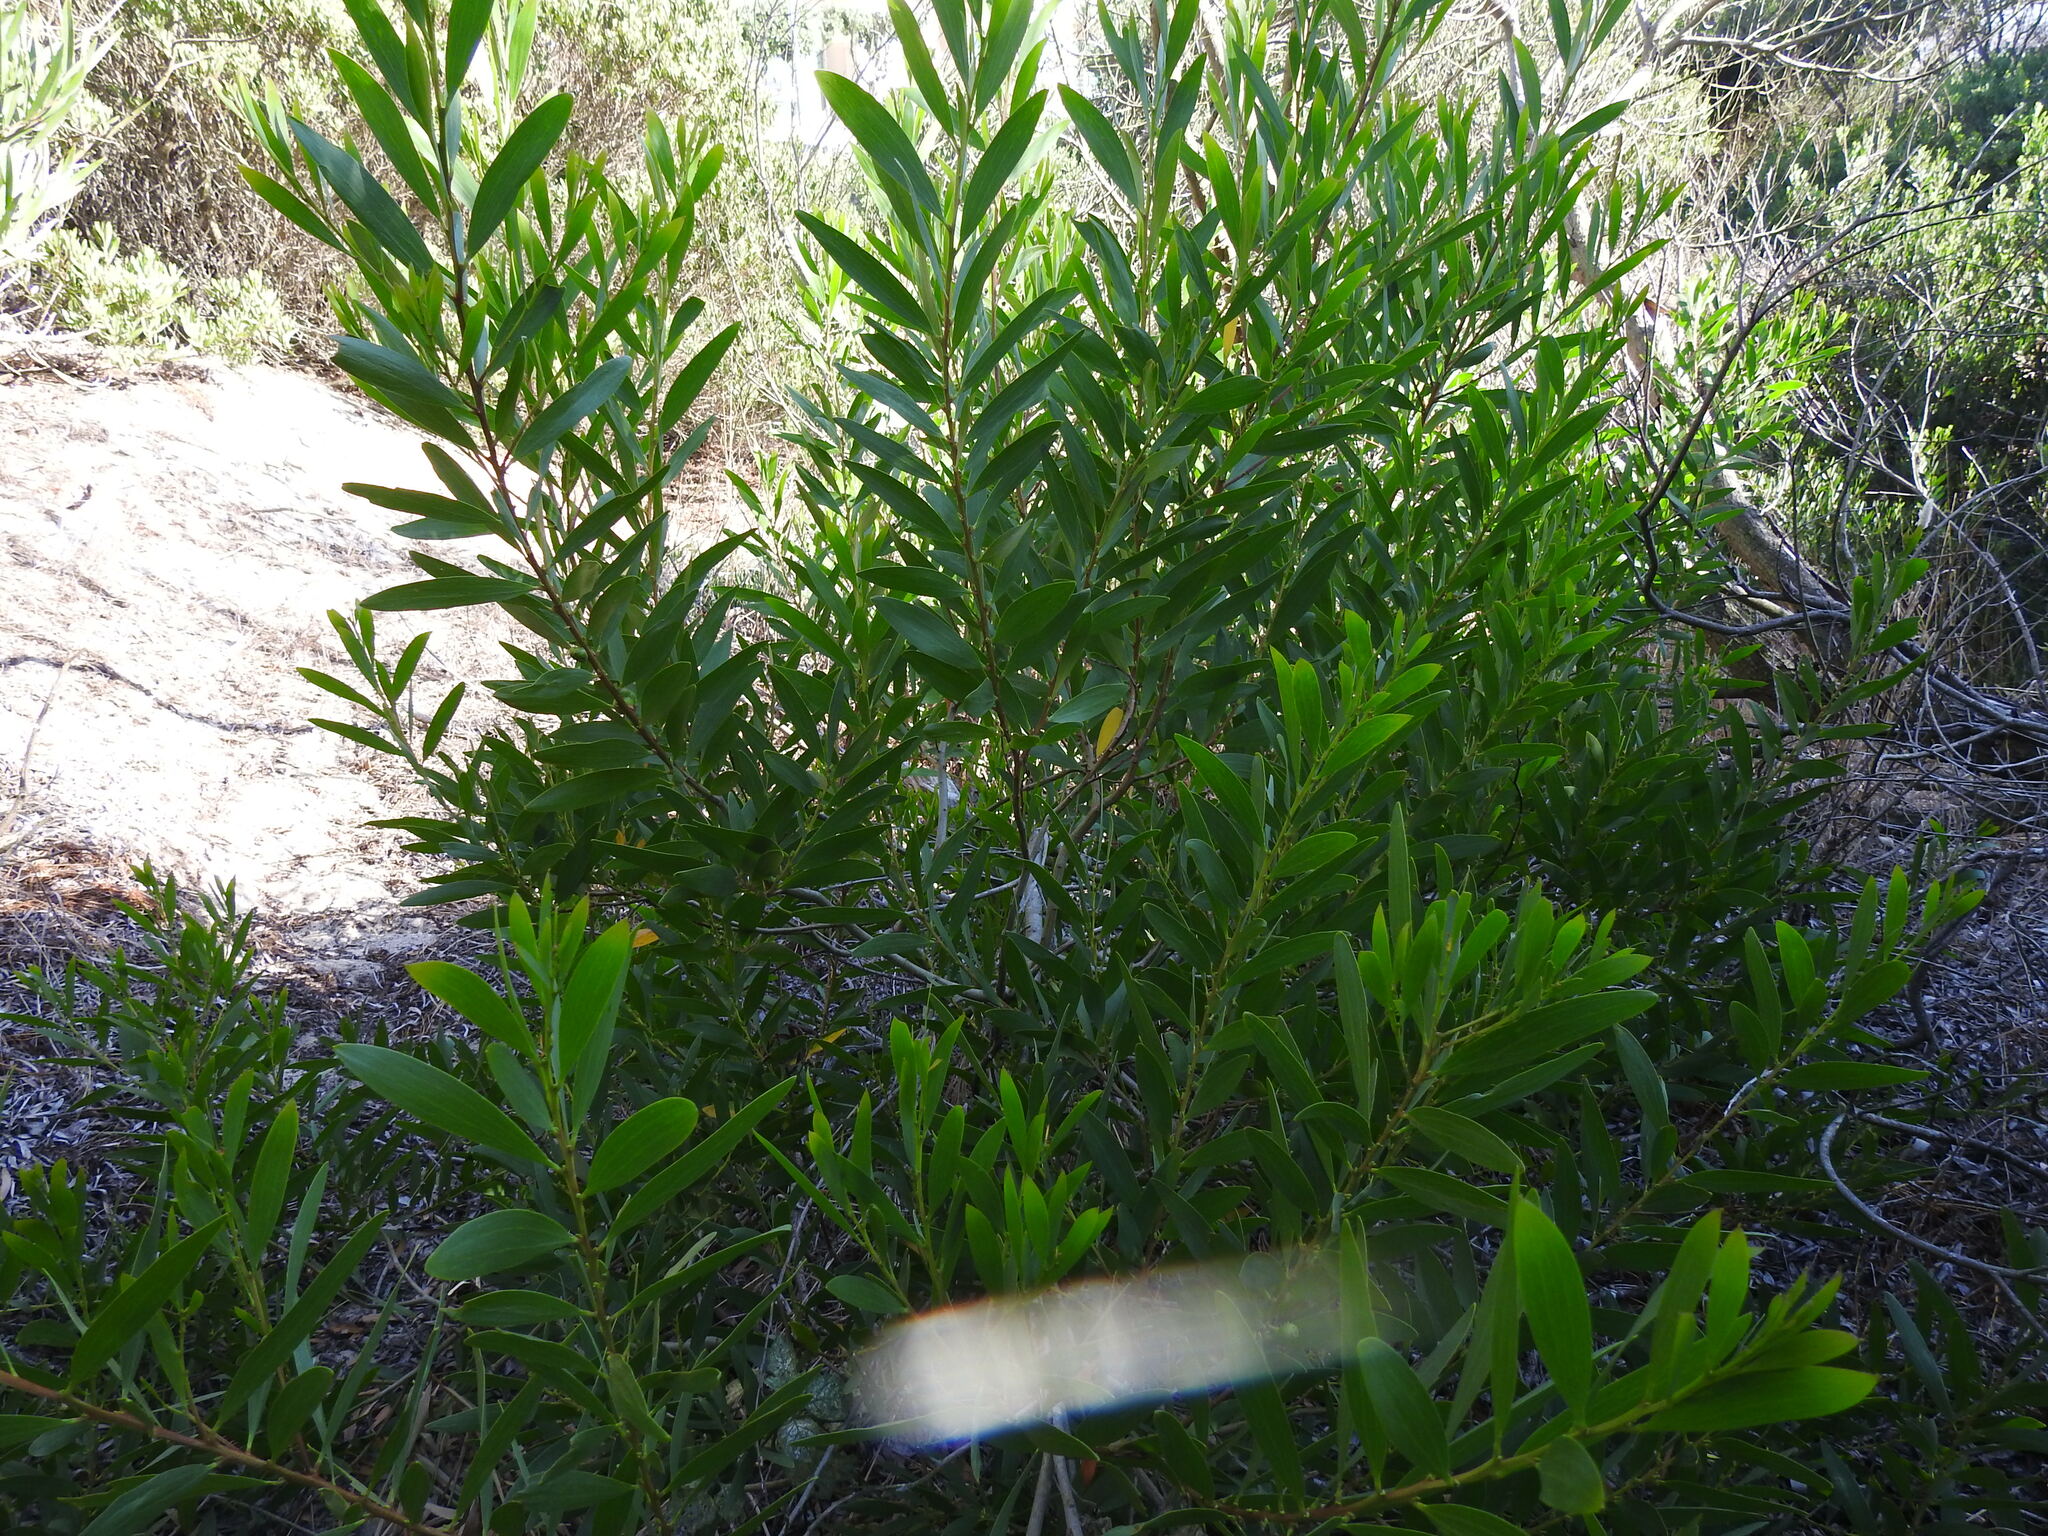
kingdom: Plantae
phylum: Tracheophyta
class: Magnoliopsida
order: Fabales
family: Fabaceae
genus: Acacia
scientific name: Acacia longifolia
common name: Sydney golden wattle
